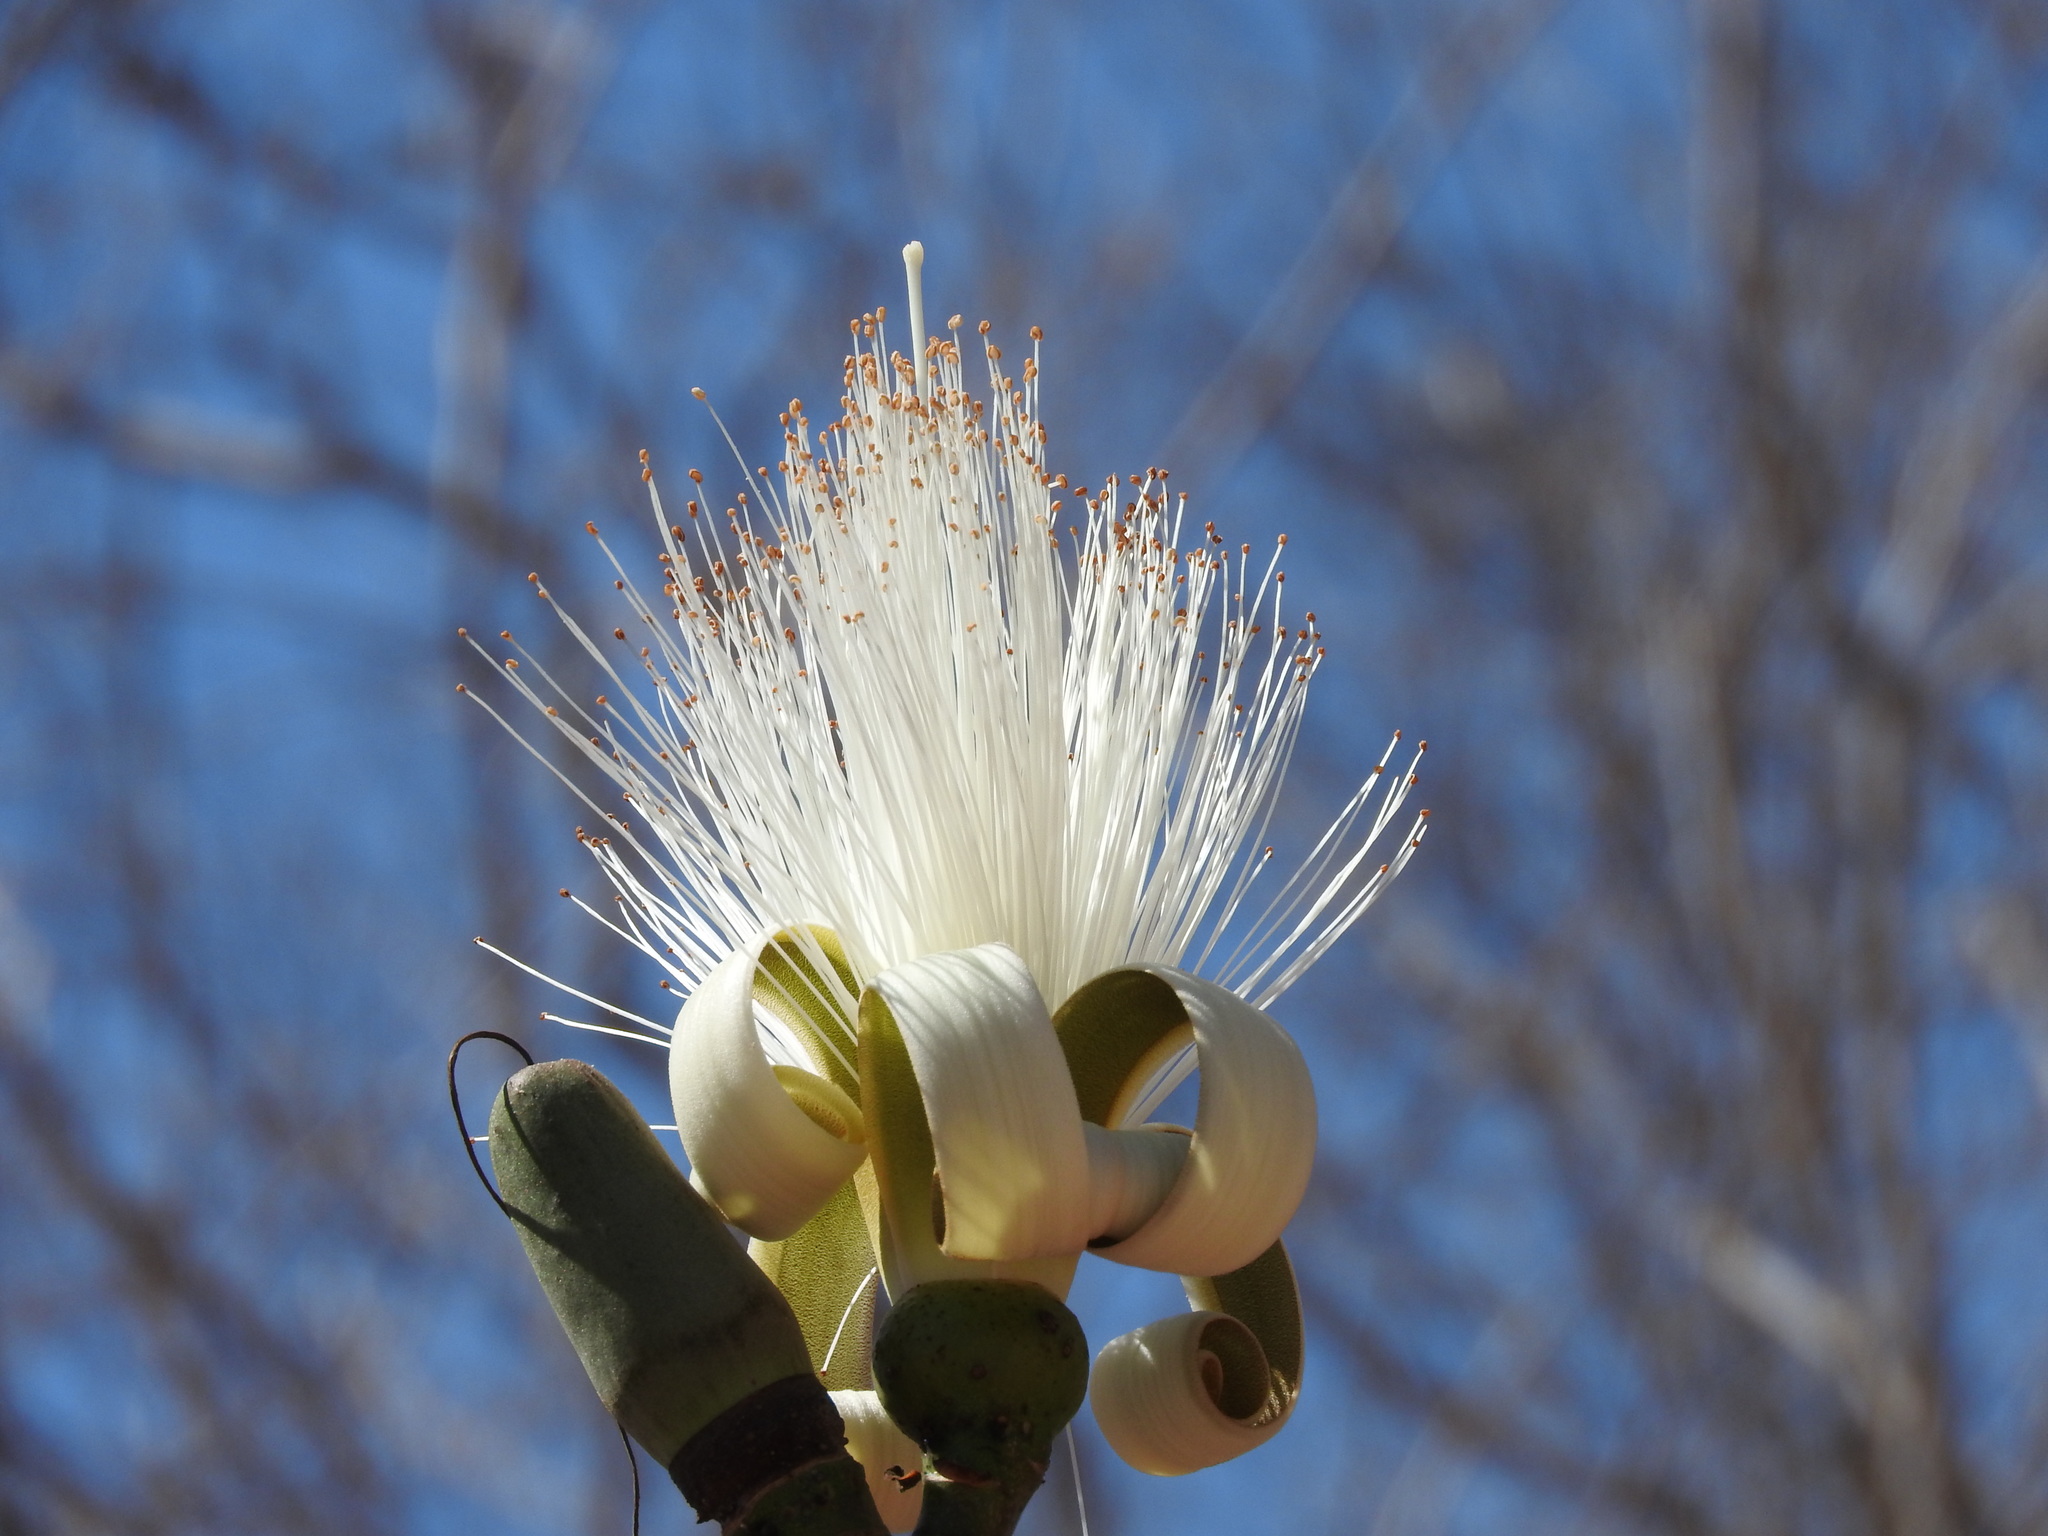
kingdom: Plantae
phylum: Tracheophyta
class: Magnoliopsida
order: Malvales
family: Malvaceae
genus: Pseudobombax
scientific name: Pseudobombax ellipticum
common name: Shaving-brush-tree
